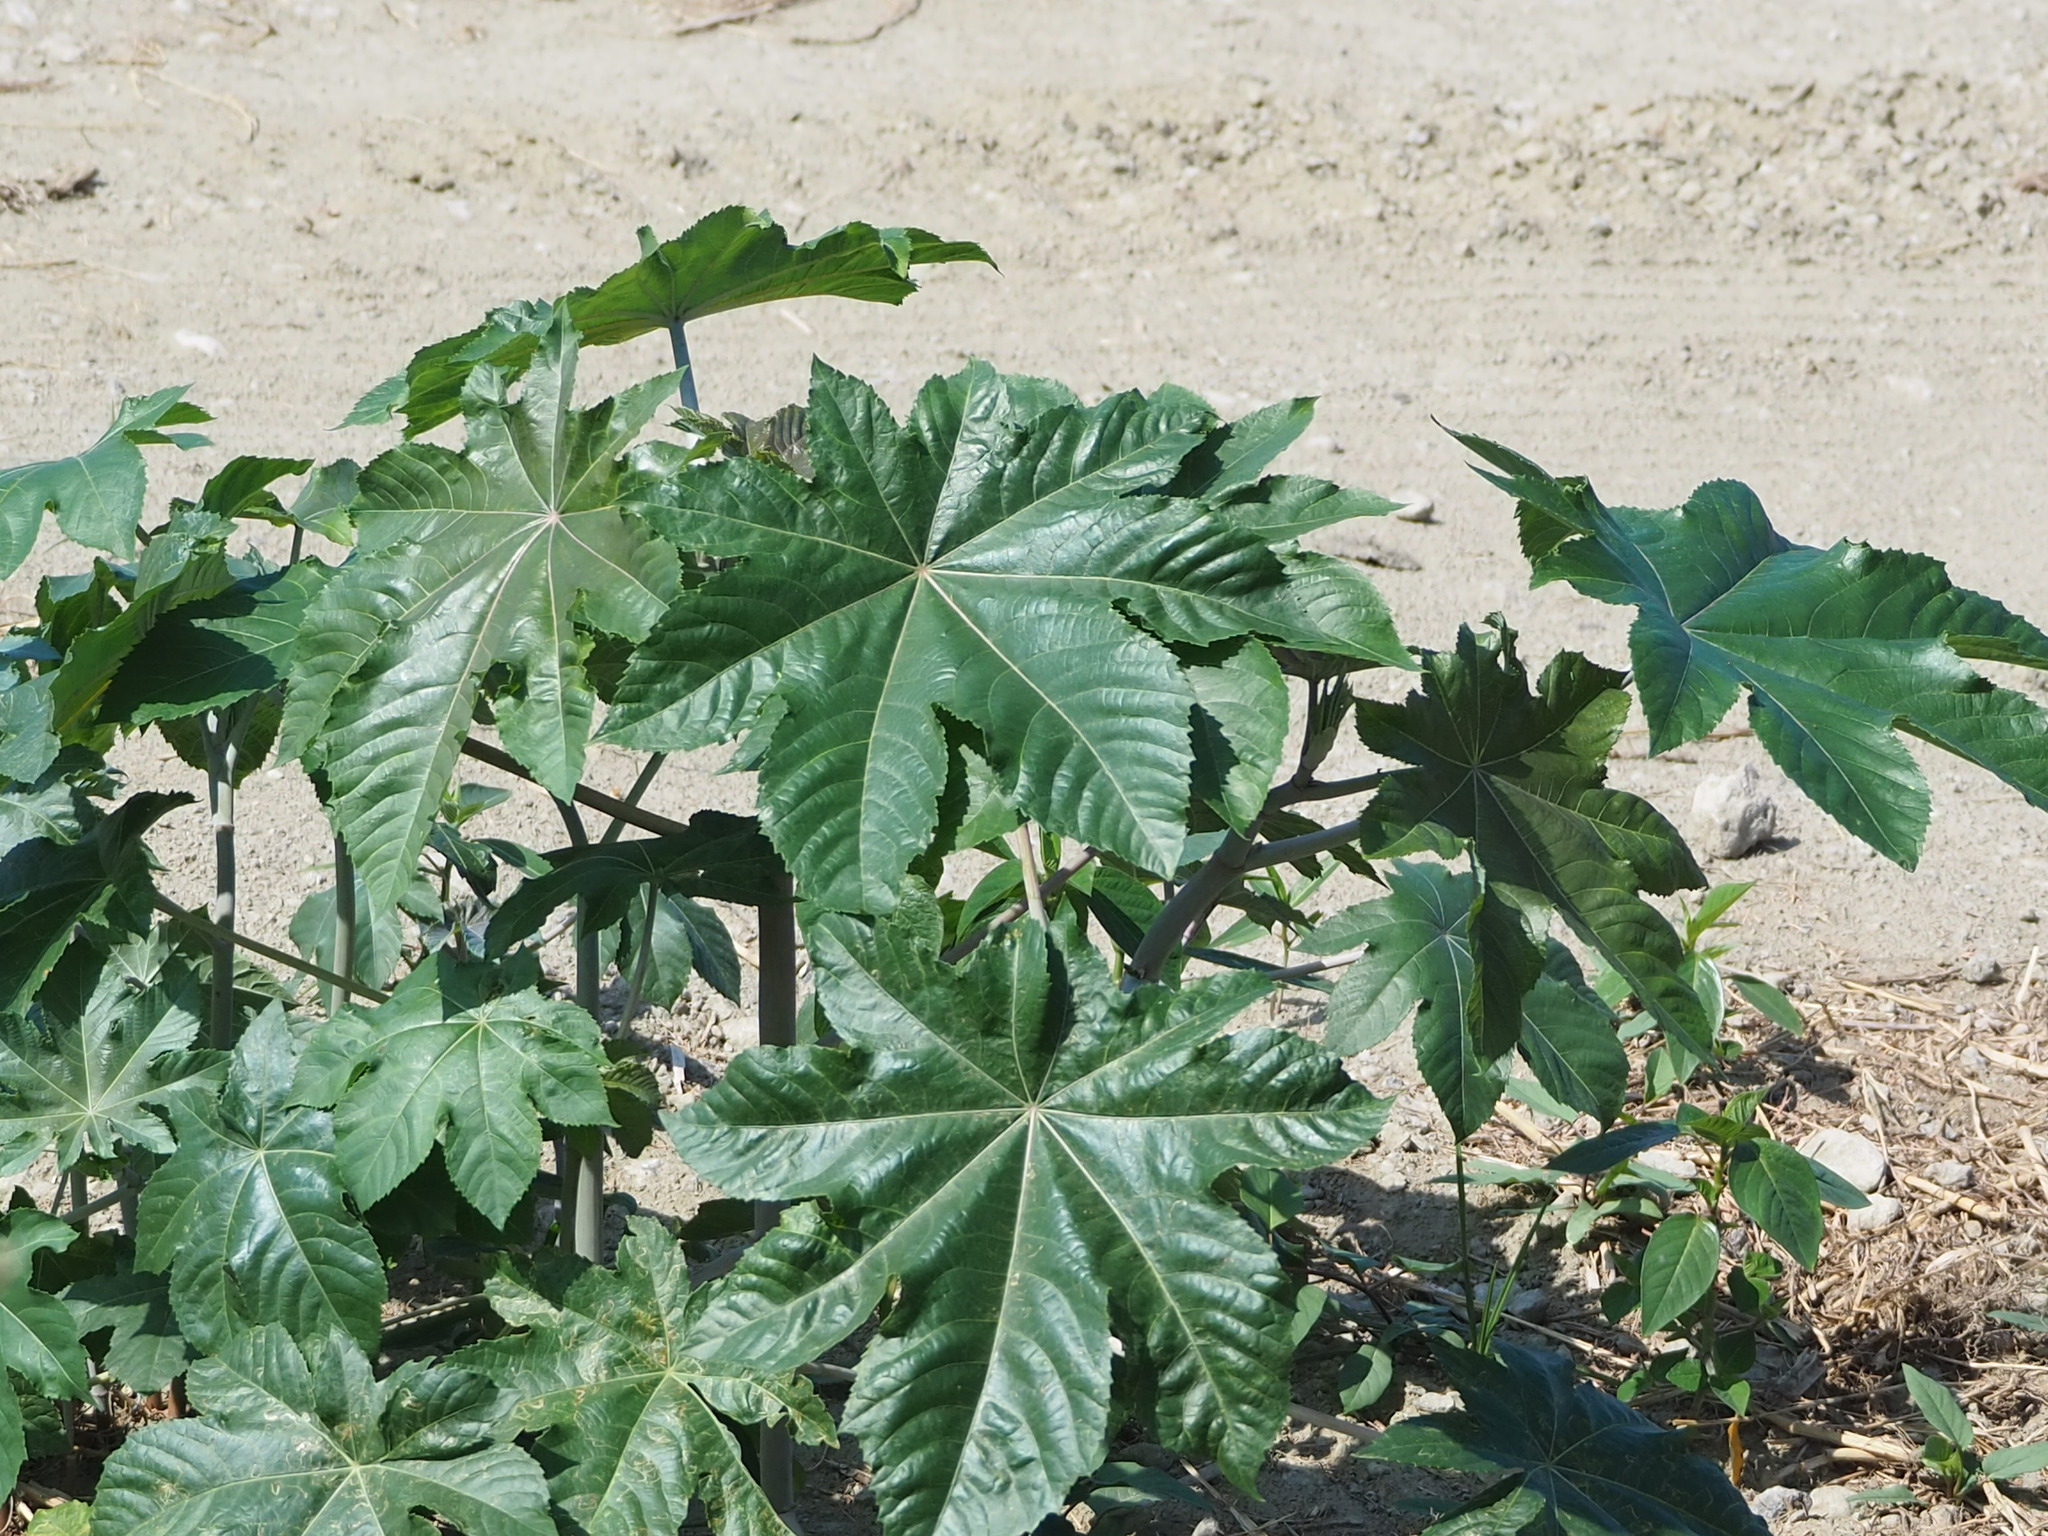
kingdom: Plantae
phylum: Tracheophyta
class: Magnoliopsida
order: Malpighiales
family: Euphorbiaceae
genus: Ricinus
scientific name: Ricinus communis
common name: Castor-oil-plant
